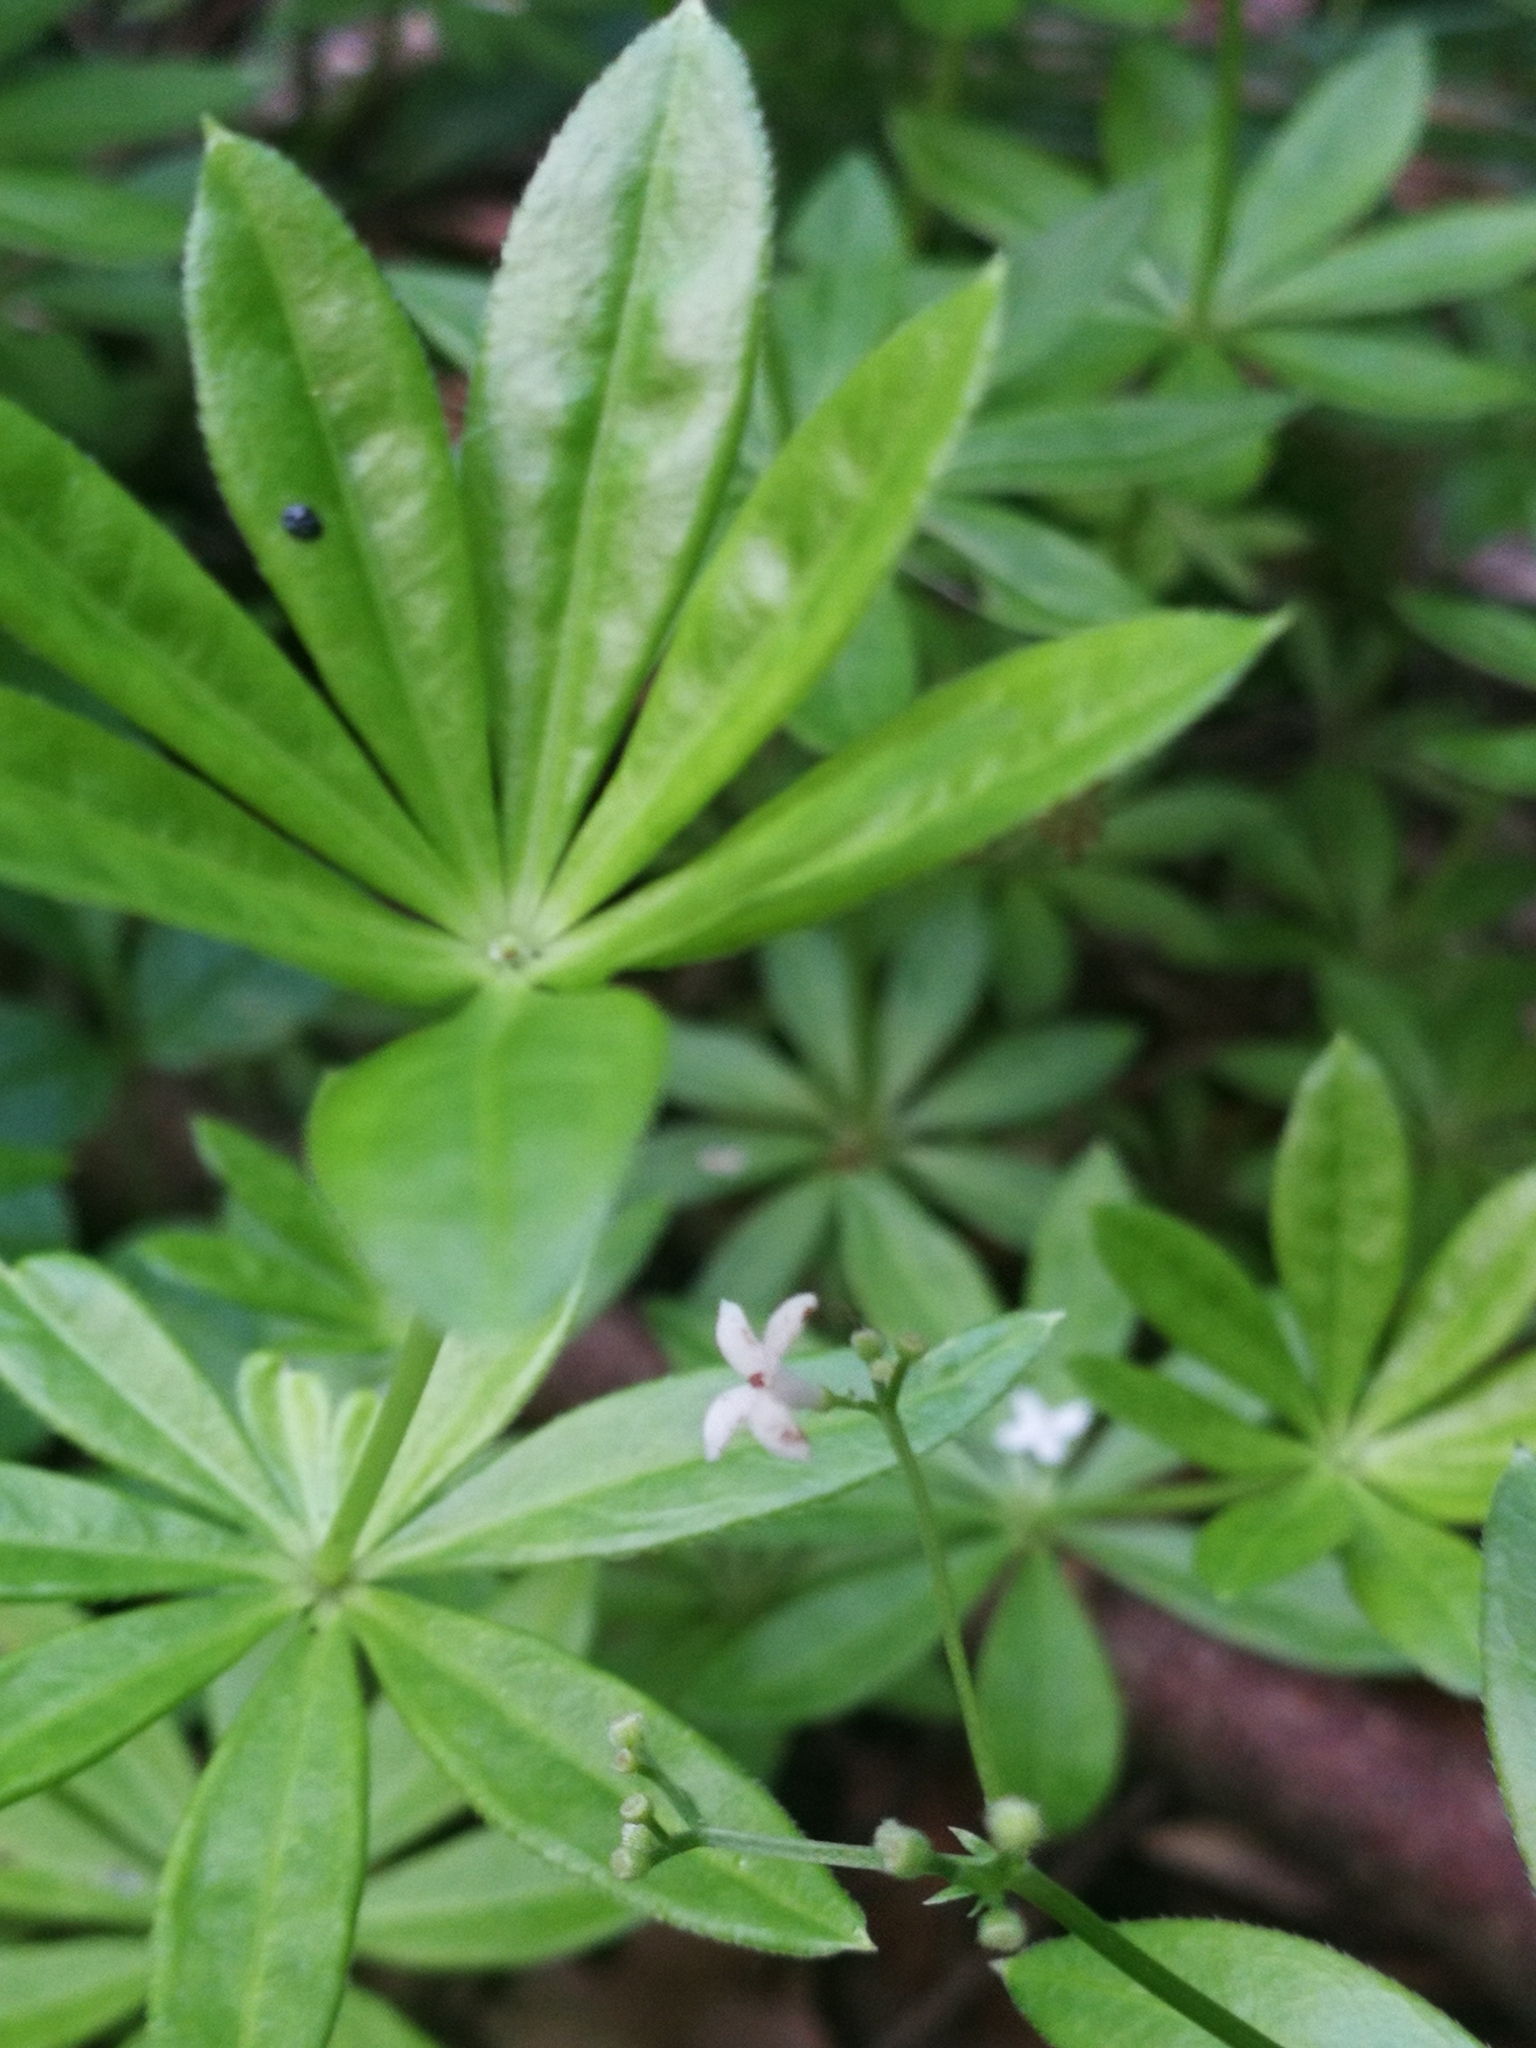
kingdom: Plantae
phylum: Tracheophyta
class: Magnoliopsida
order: Gentianales
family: Rubiaceae
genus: Galium
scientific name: Galium sylvaticum
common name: Wood bedstraw
